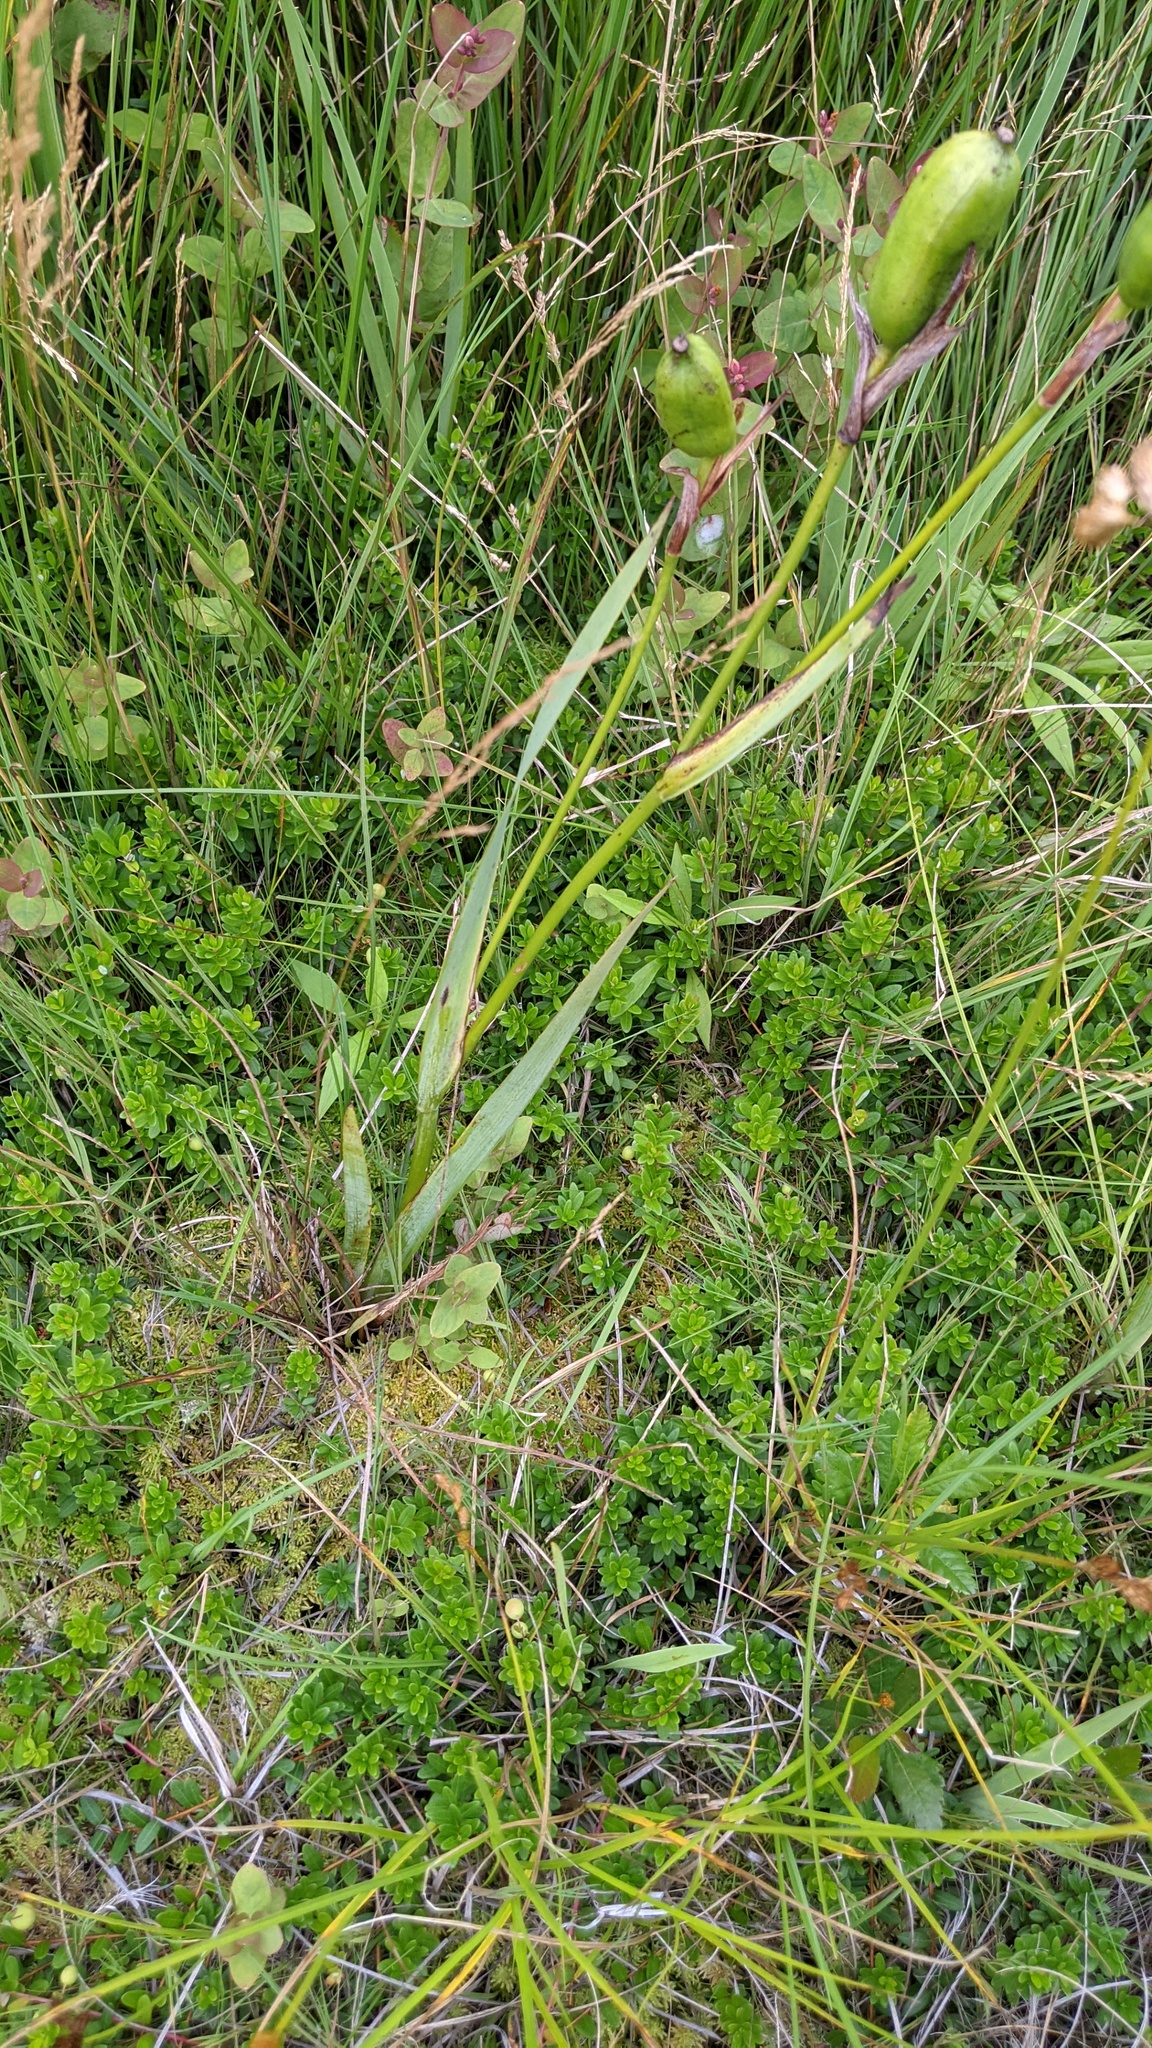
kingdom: Plantae
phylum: Tracheophyta
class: Liliopsida
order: Asparagales
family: Iridaceae
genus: Iris
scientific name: Iris versicolor
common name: Purple iris
